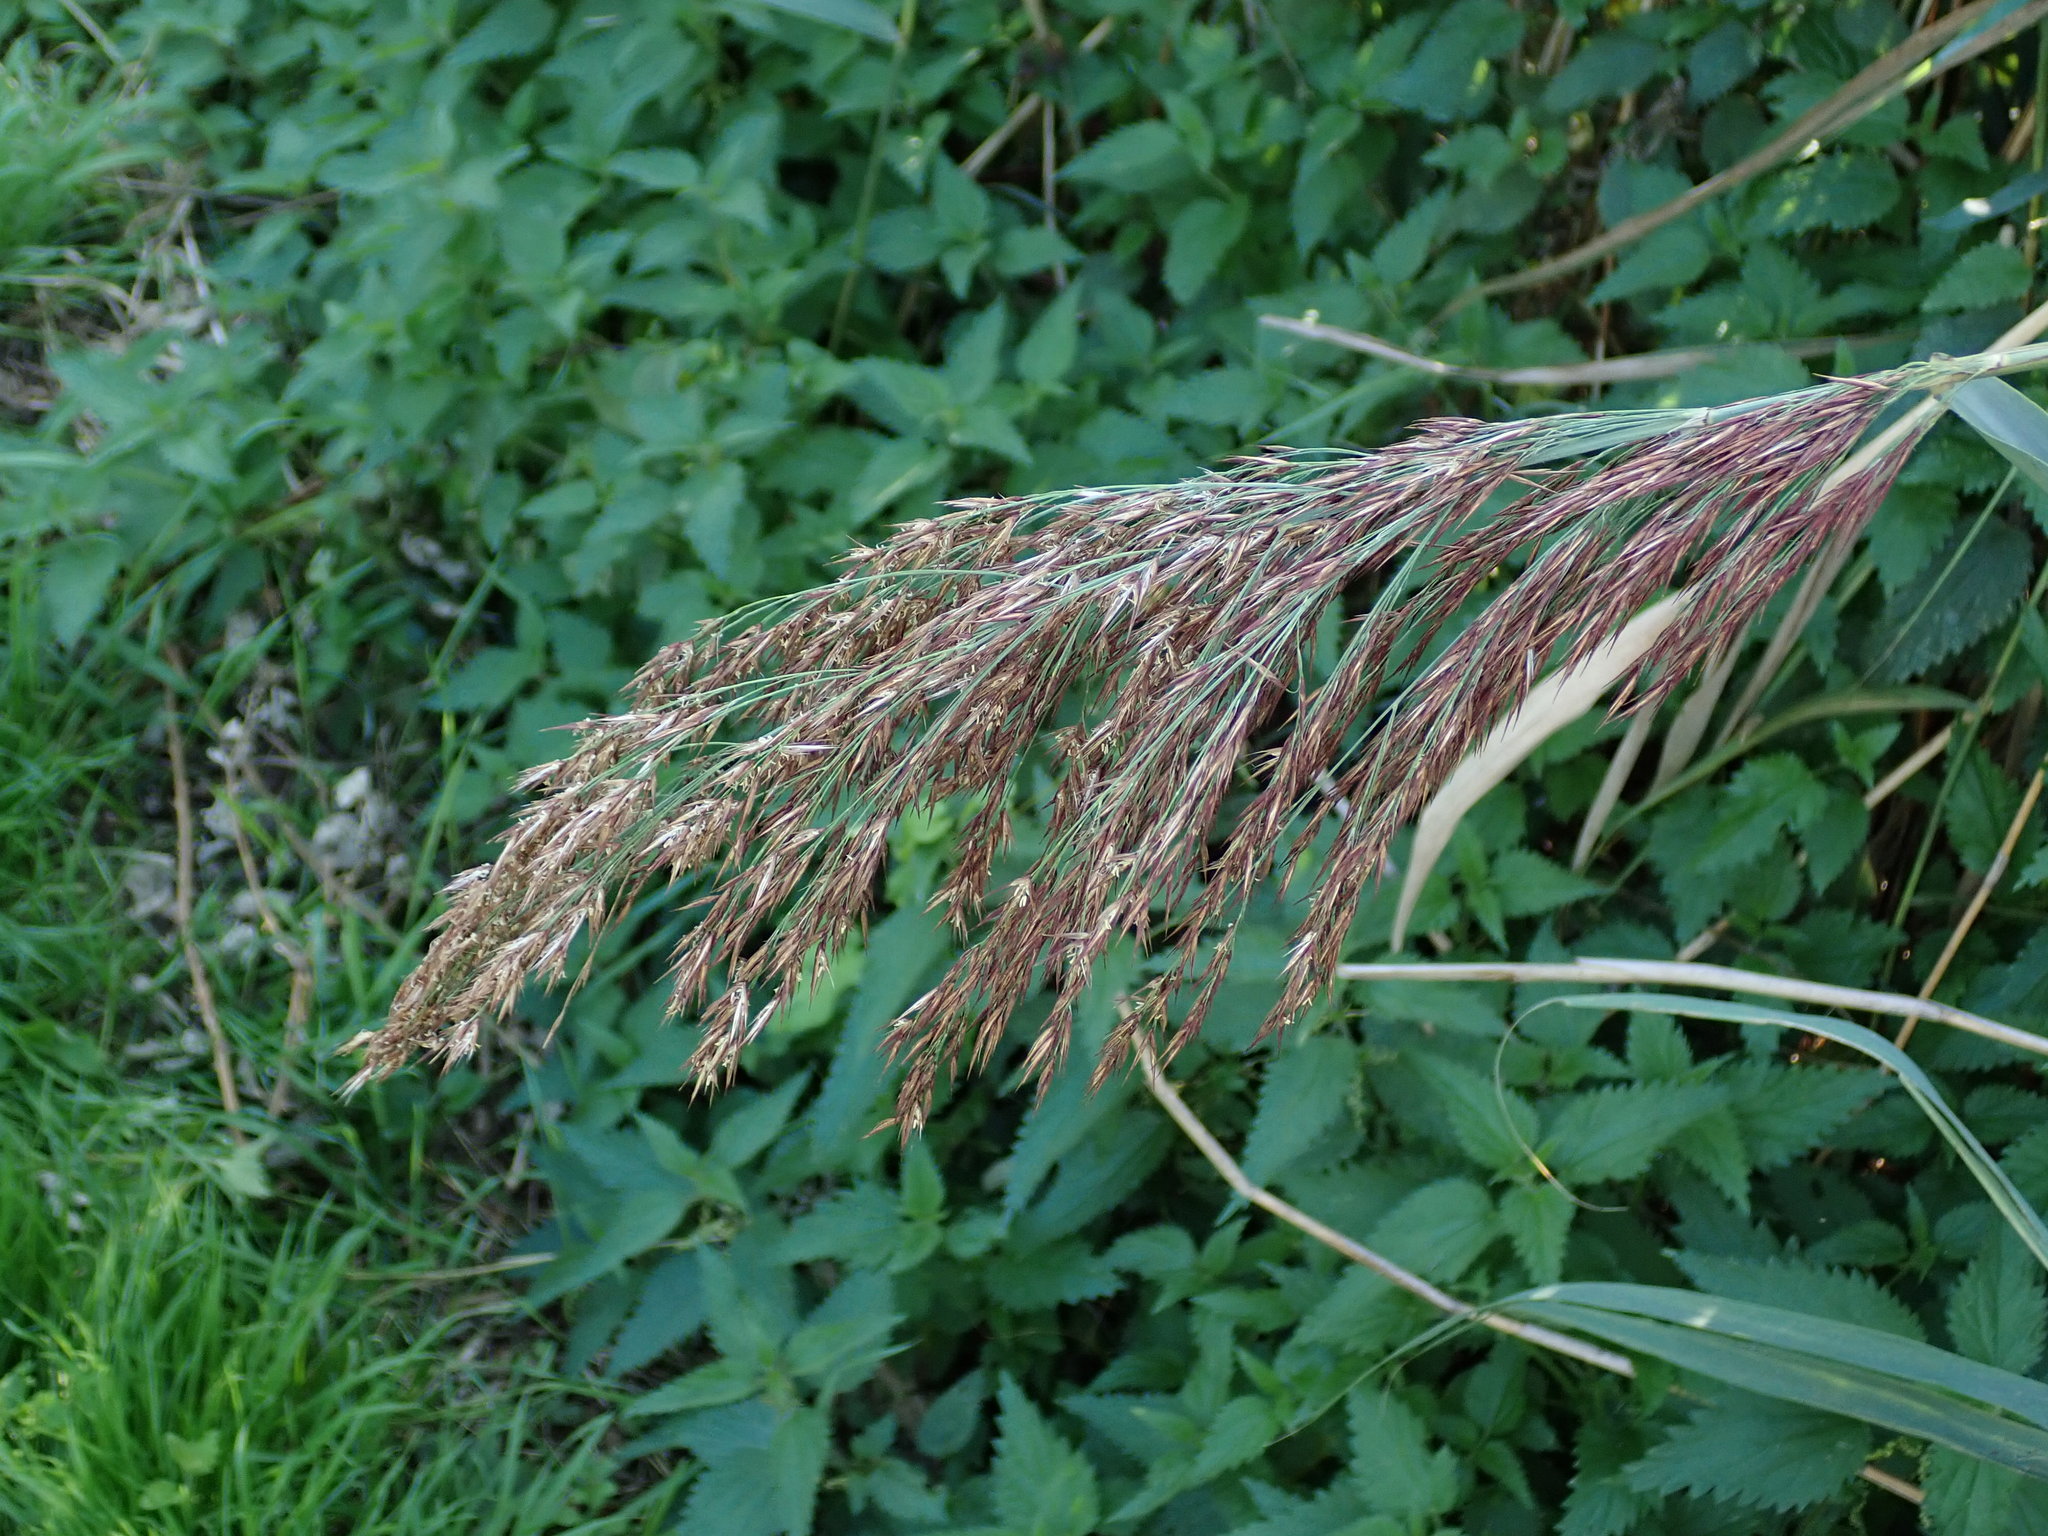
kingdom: Plantae
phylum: Tracheophyta
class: Liliopsida
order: Poales
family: Poaceae
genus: Phragmites
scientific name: Phragmites australis
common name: Common reed
